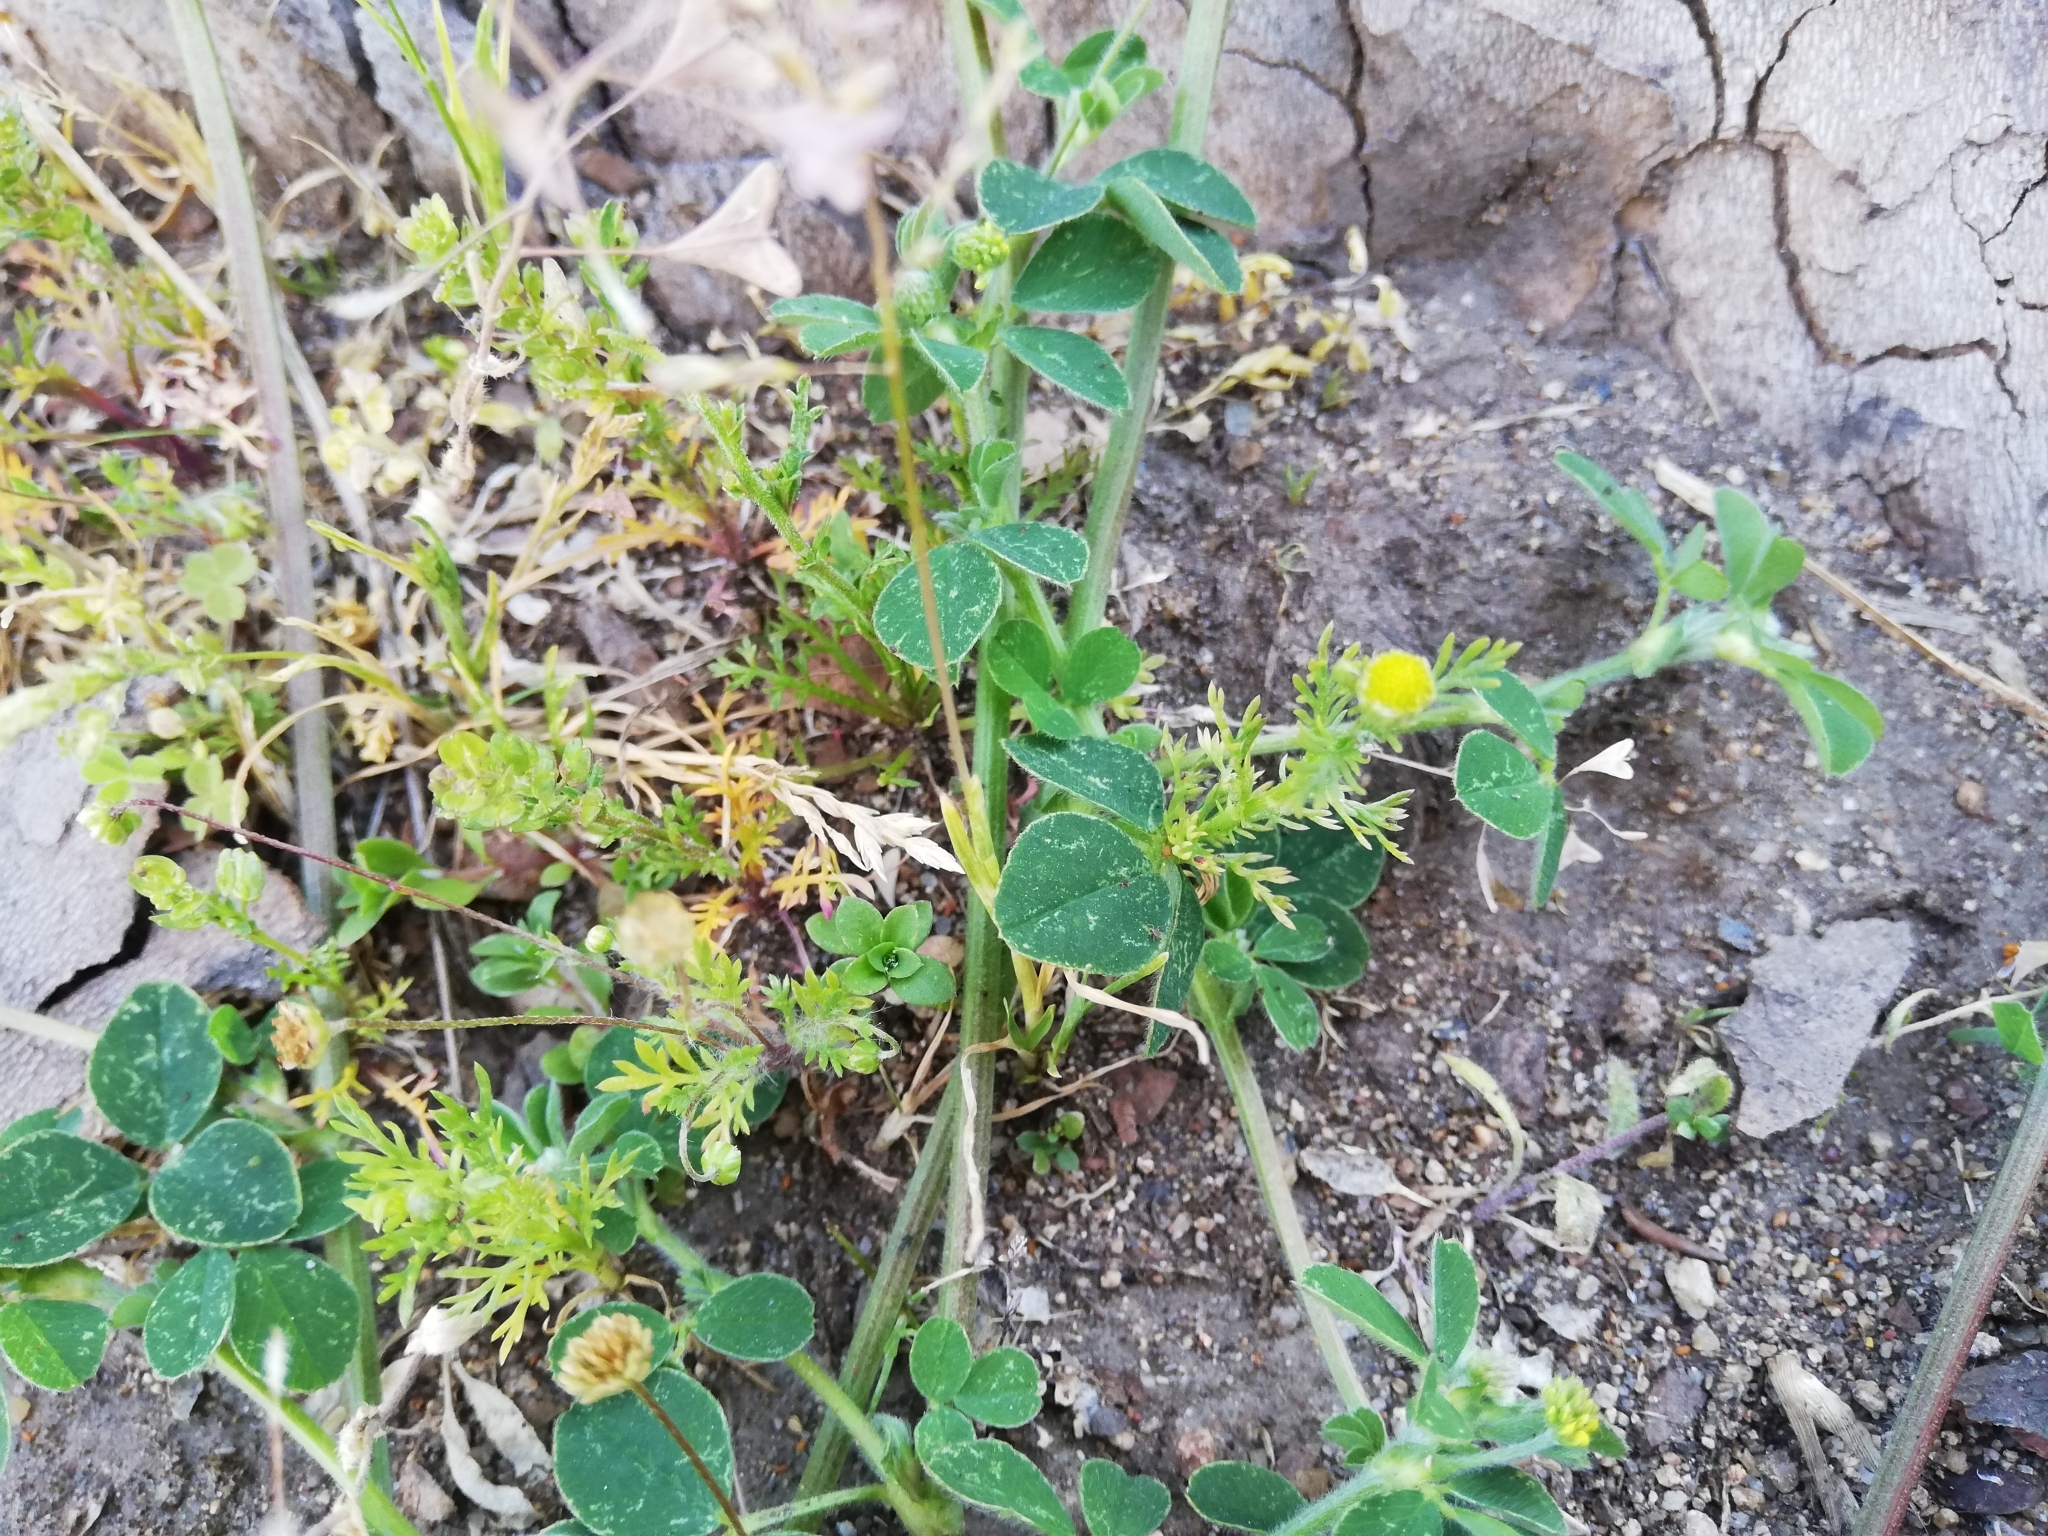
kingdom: Plantae
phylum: Tracheophyta
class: Magnoliopsida
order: Fabales
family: Fabaceae
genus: Medicago
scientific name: Medicago lupulina
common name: Black medick
